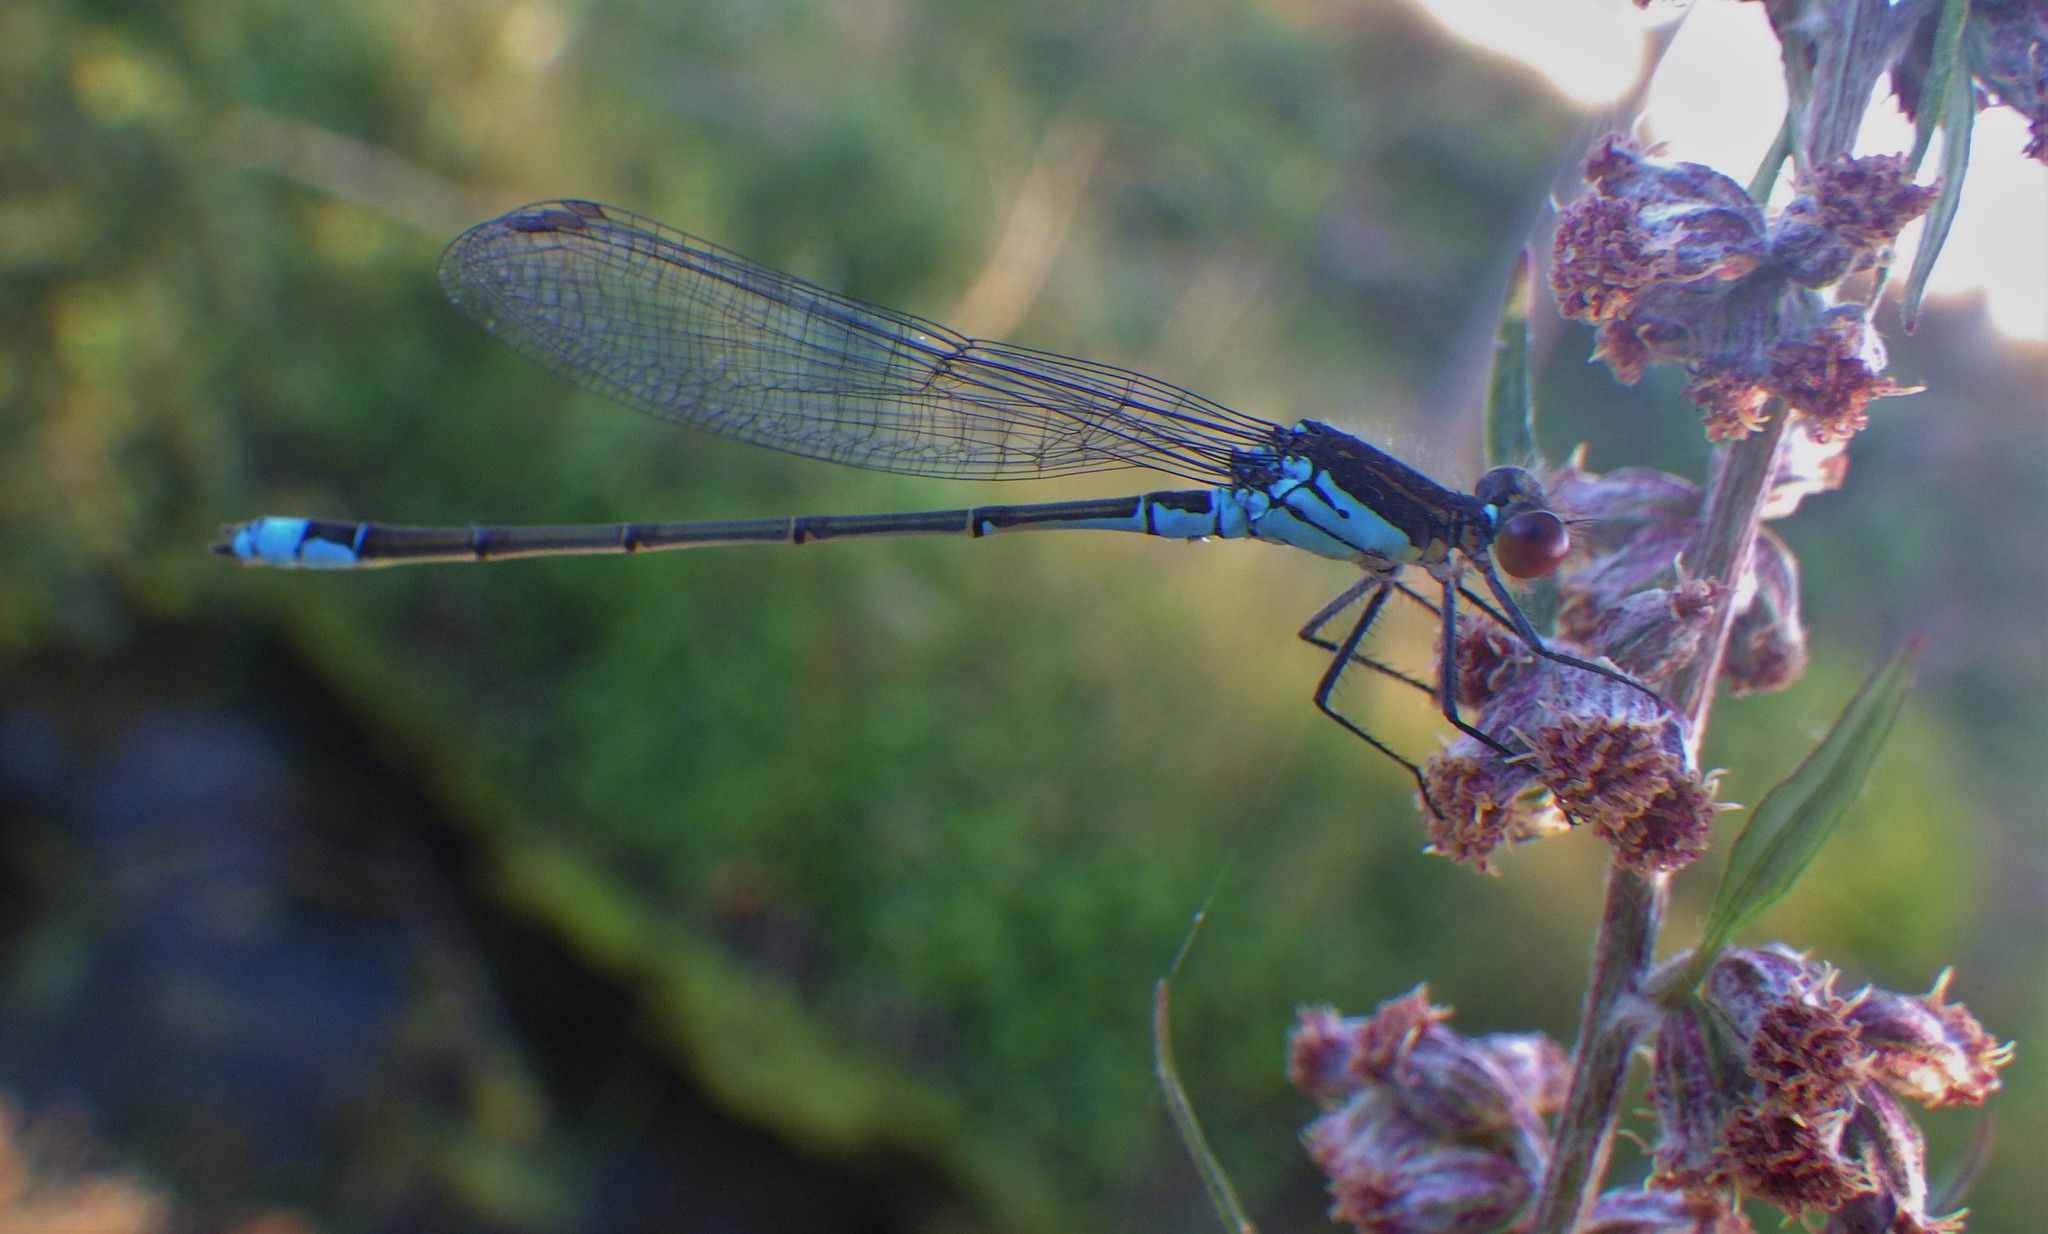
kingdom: Animalia
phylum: Arthropoda
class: Insecta
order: Odonata
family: Coenagrionidae
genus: Erythromma
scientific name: Erythromma viridulum
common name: Small red-eyed damselfly
